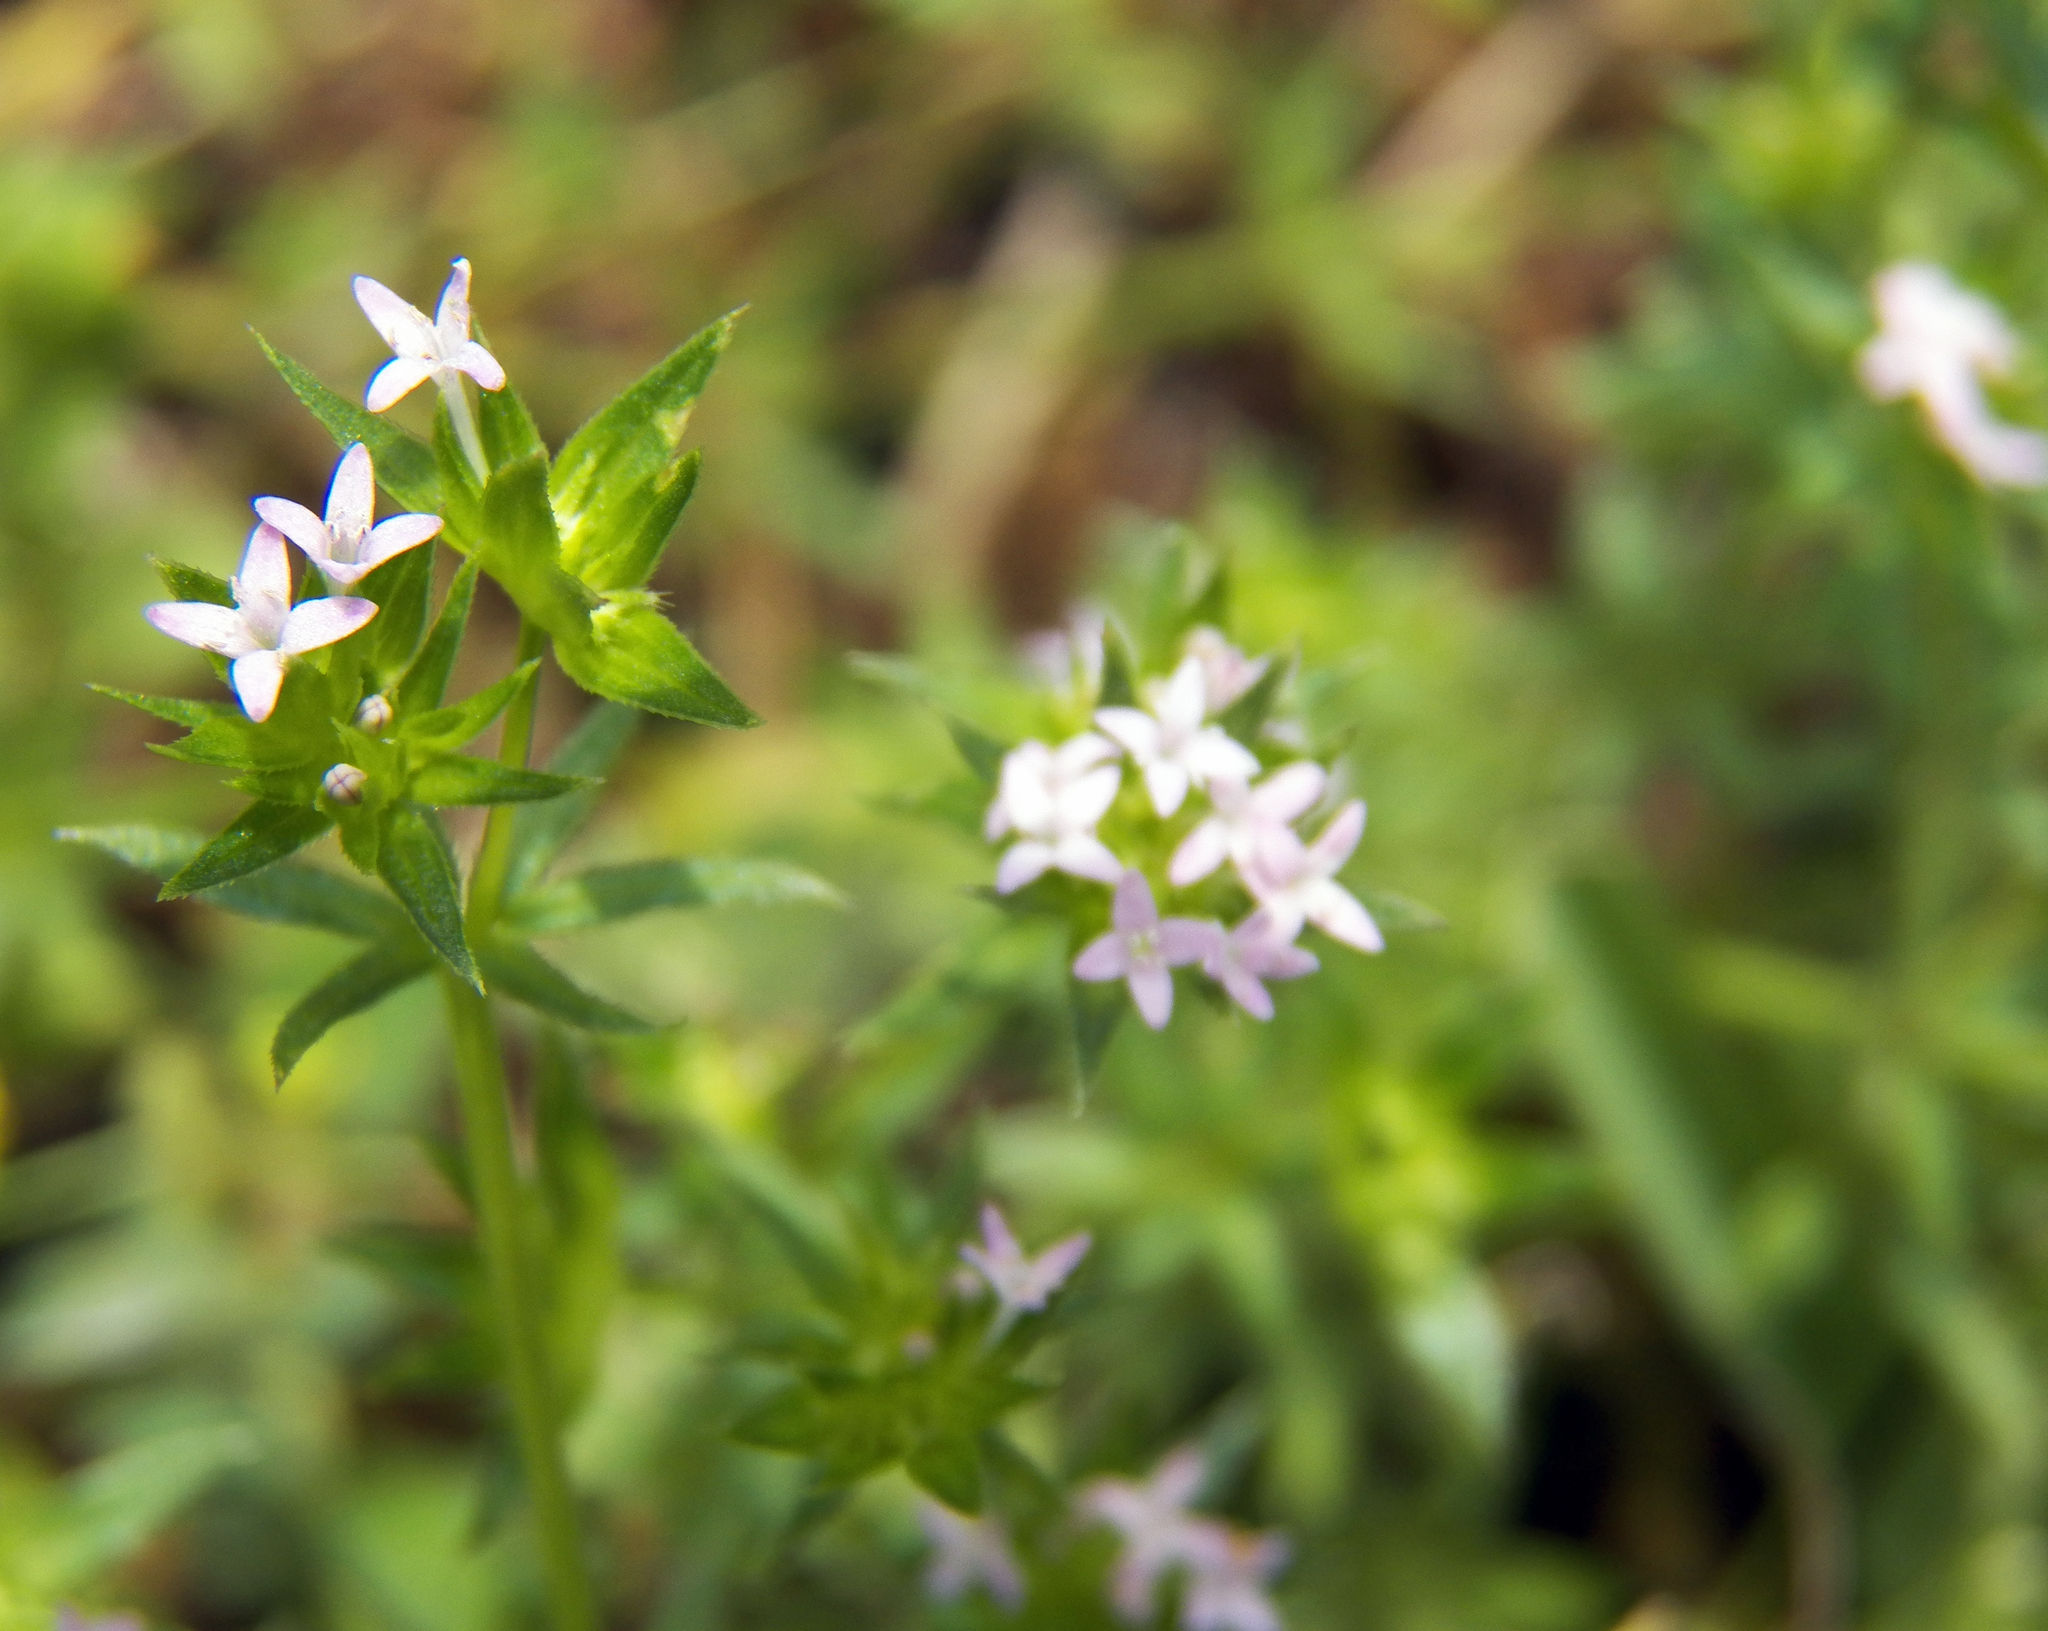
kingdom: Plantae
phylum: Tracheophyta
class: Magnoliopsida
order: Gentianales
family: Rubiaceae
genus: Sherardia
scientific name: Sherardia arvensis
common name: Field madder
